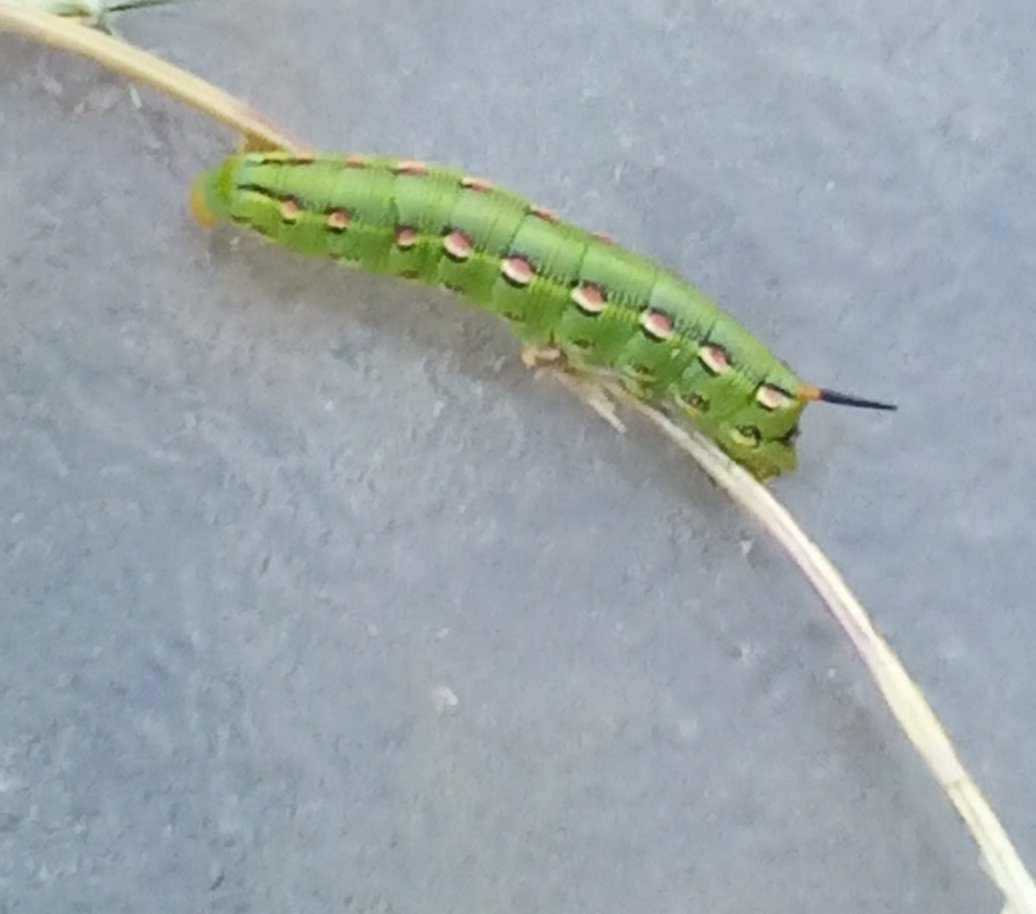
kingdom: Animalia
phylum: Arthropoda
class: Insecta
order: Lepidoptera
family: Sphingidae
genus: Hyles
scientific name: Hyles lineata
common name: White-lined sphinx
